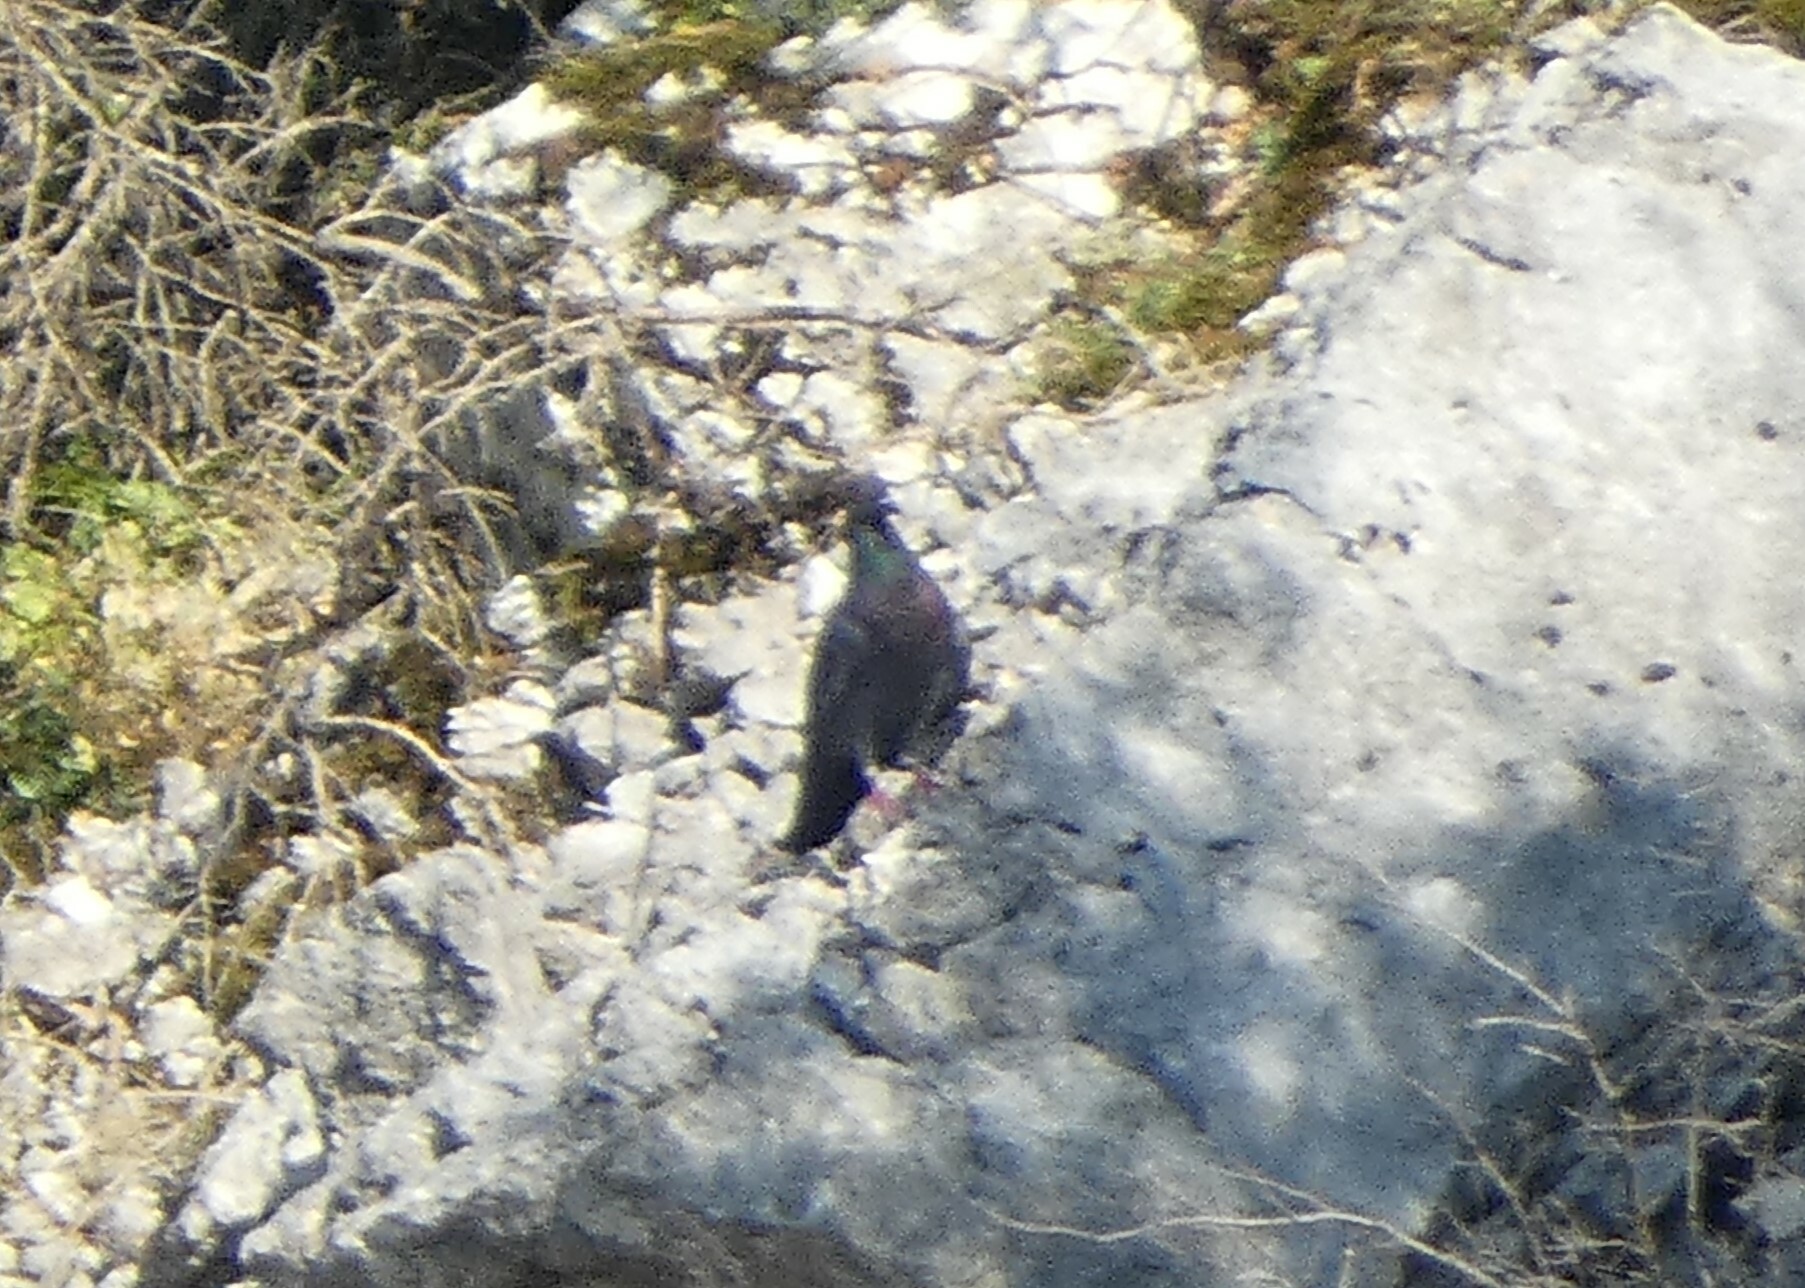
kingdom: Animalia
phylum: Chordata
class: Aves
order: Columbiformes
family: Columbidae
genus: Columba
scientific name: Columba livia
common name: Rock pigeon
